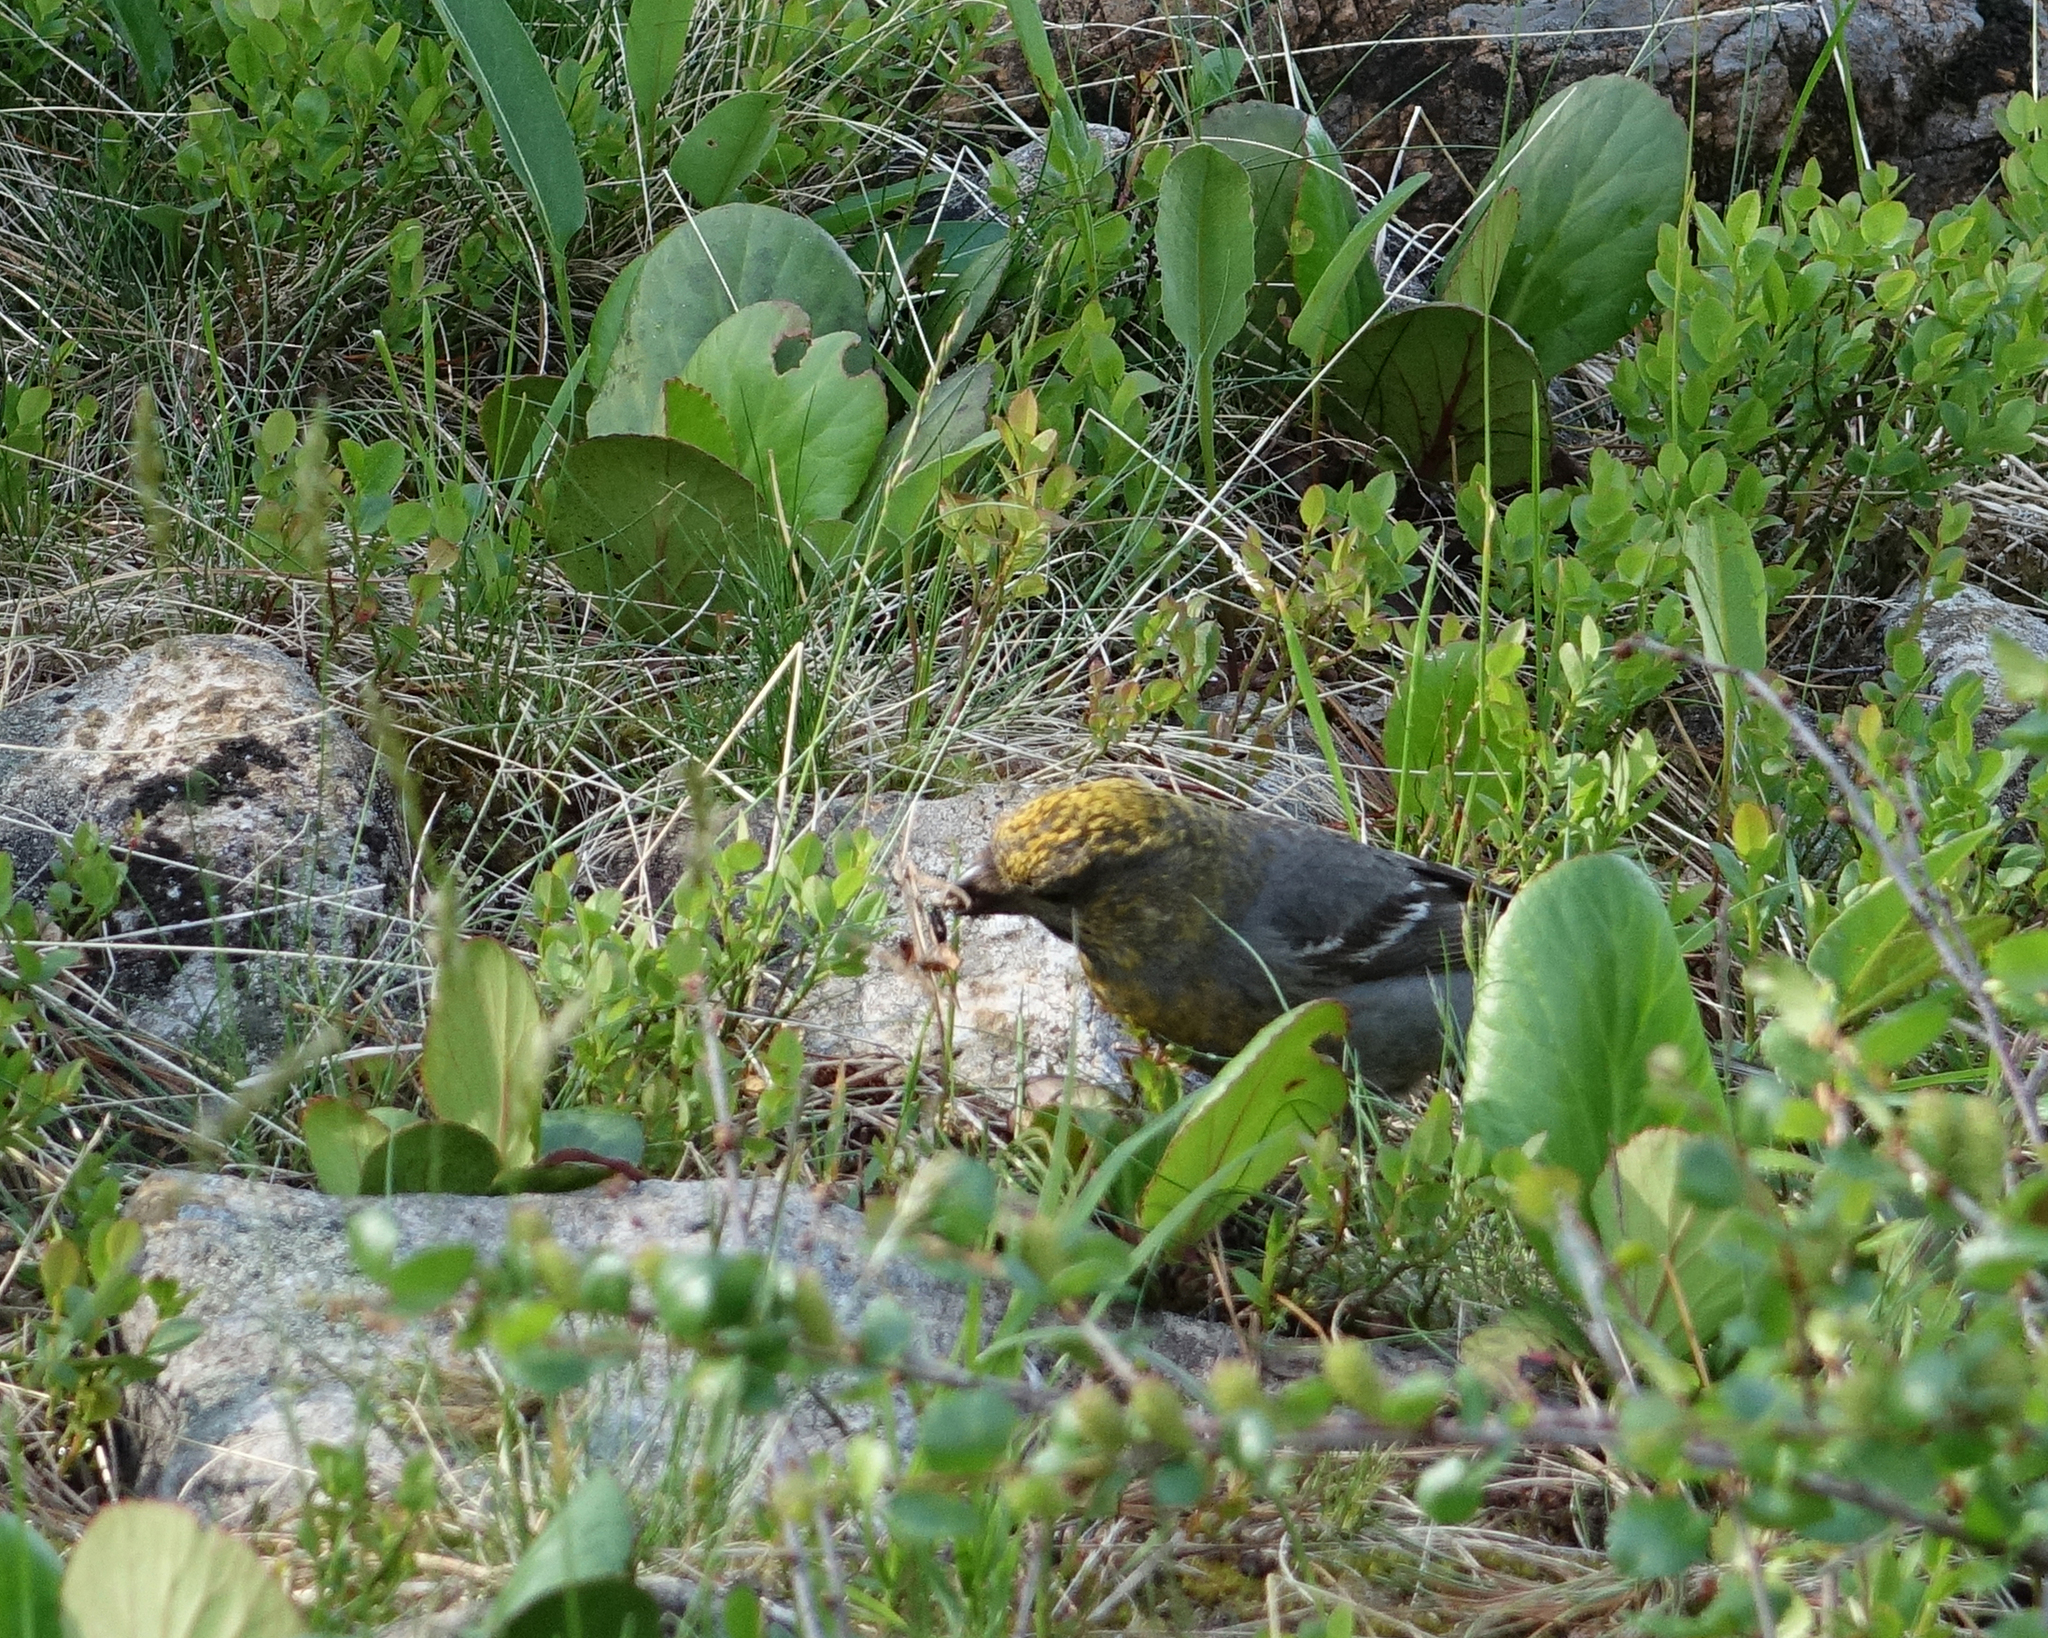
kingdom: Animalia
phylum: Chordata
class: Aves
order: Passeriformes
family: Fringillidae
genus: Pinicola
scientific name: Pinicola enucleator
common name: Pine grosbeak
